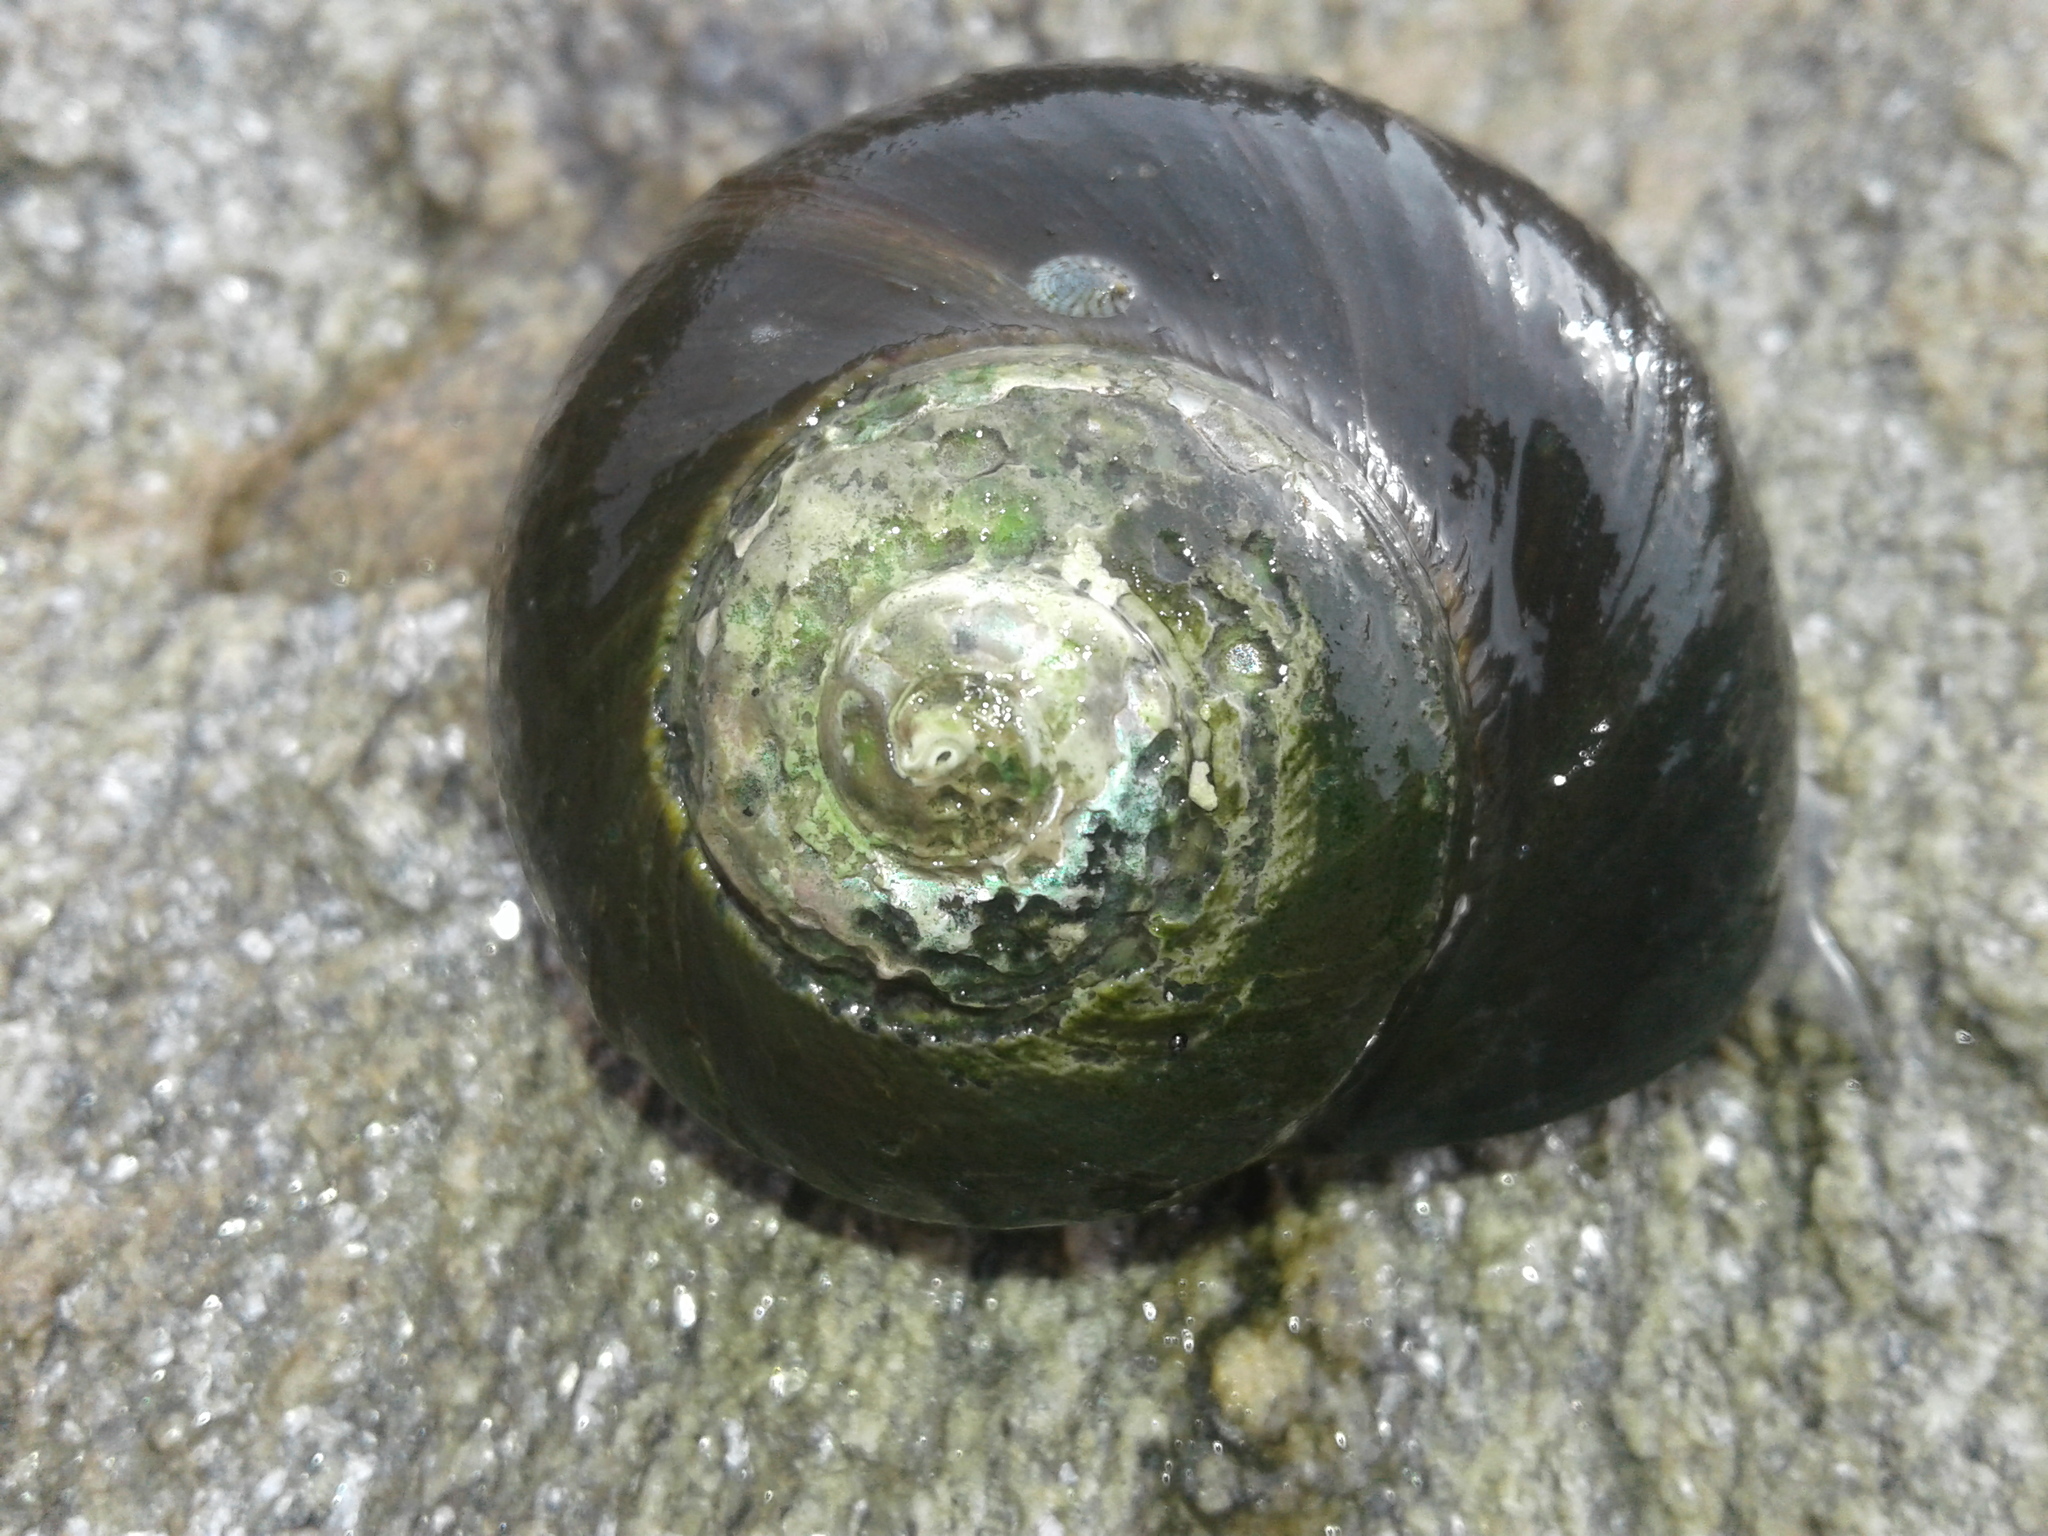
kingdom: Animalia
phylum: Mollusca
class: Gastropoda
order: Trochida
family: Turbinidae
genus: Lunella
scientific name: Lunella smaragda
